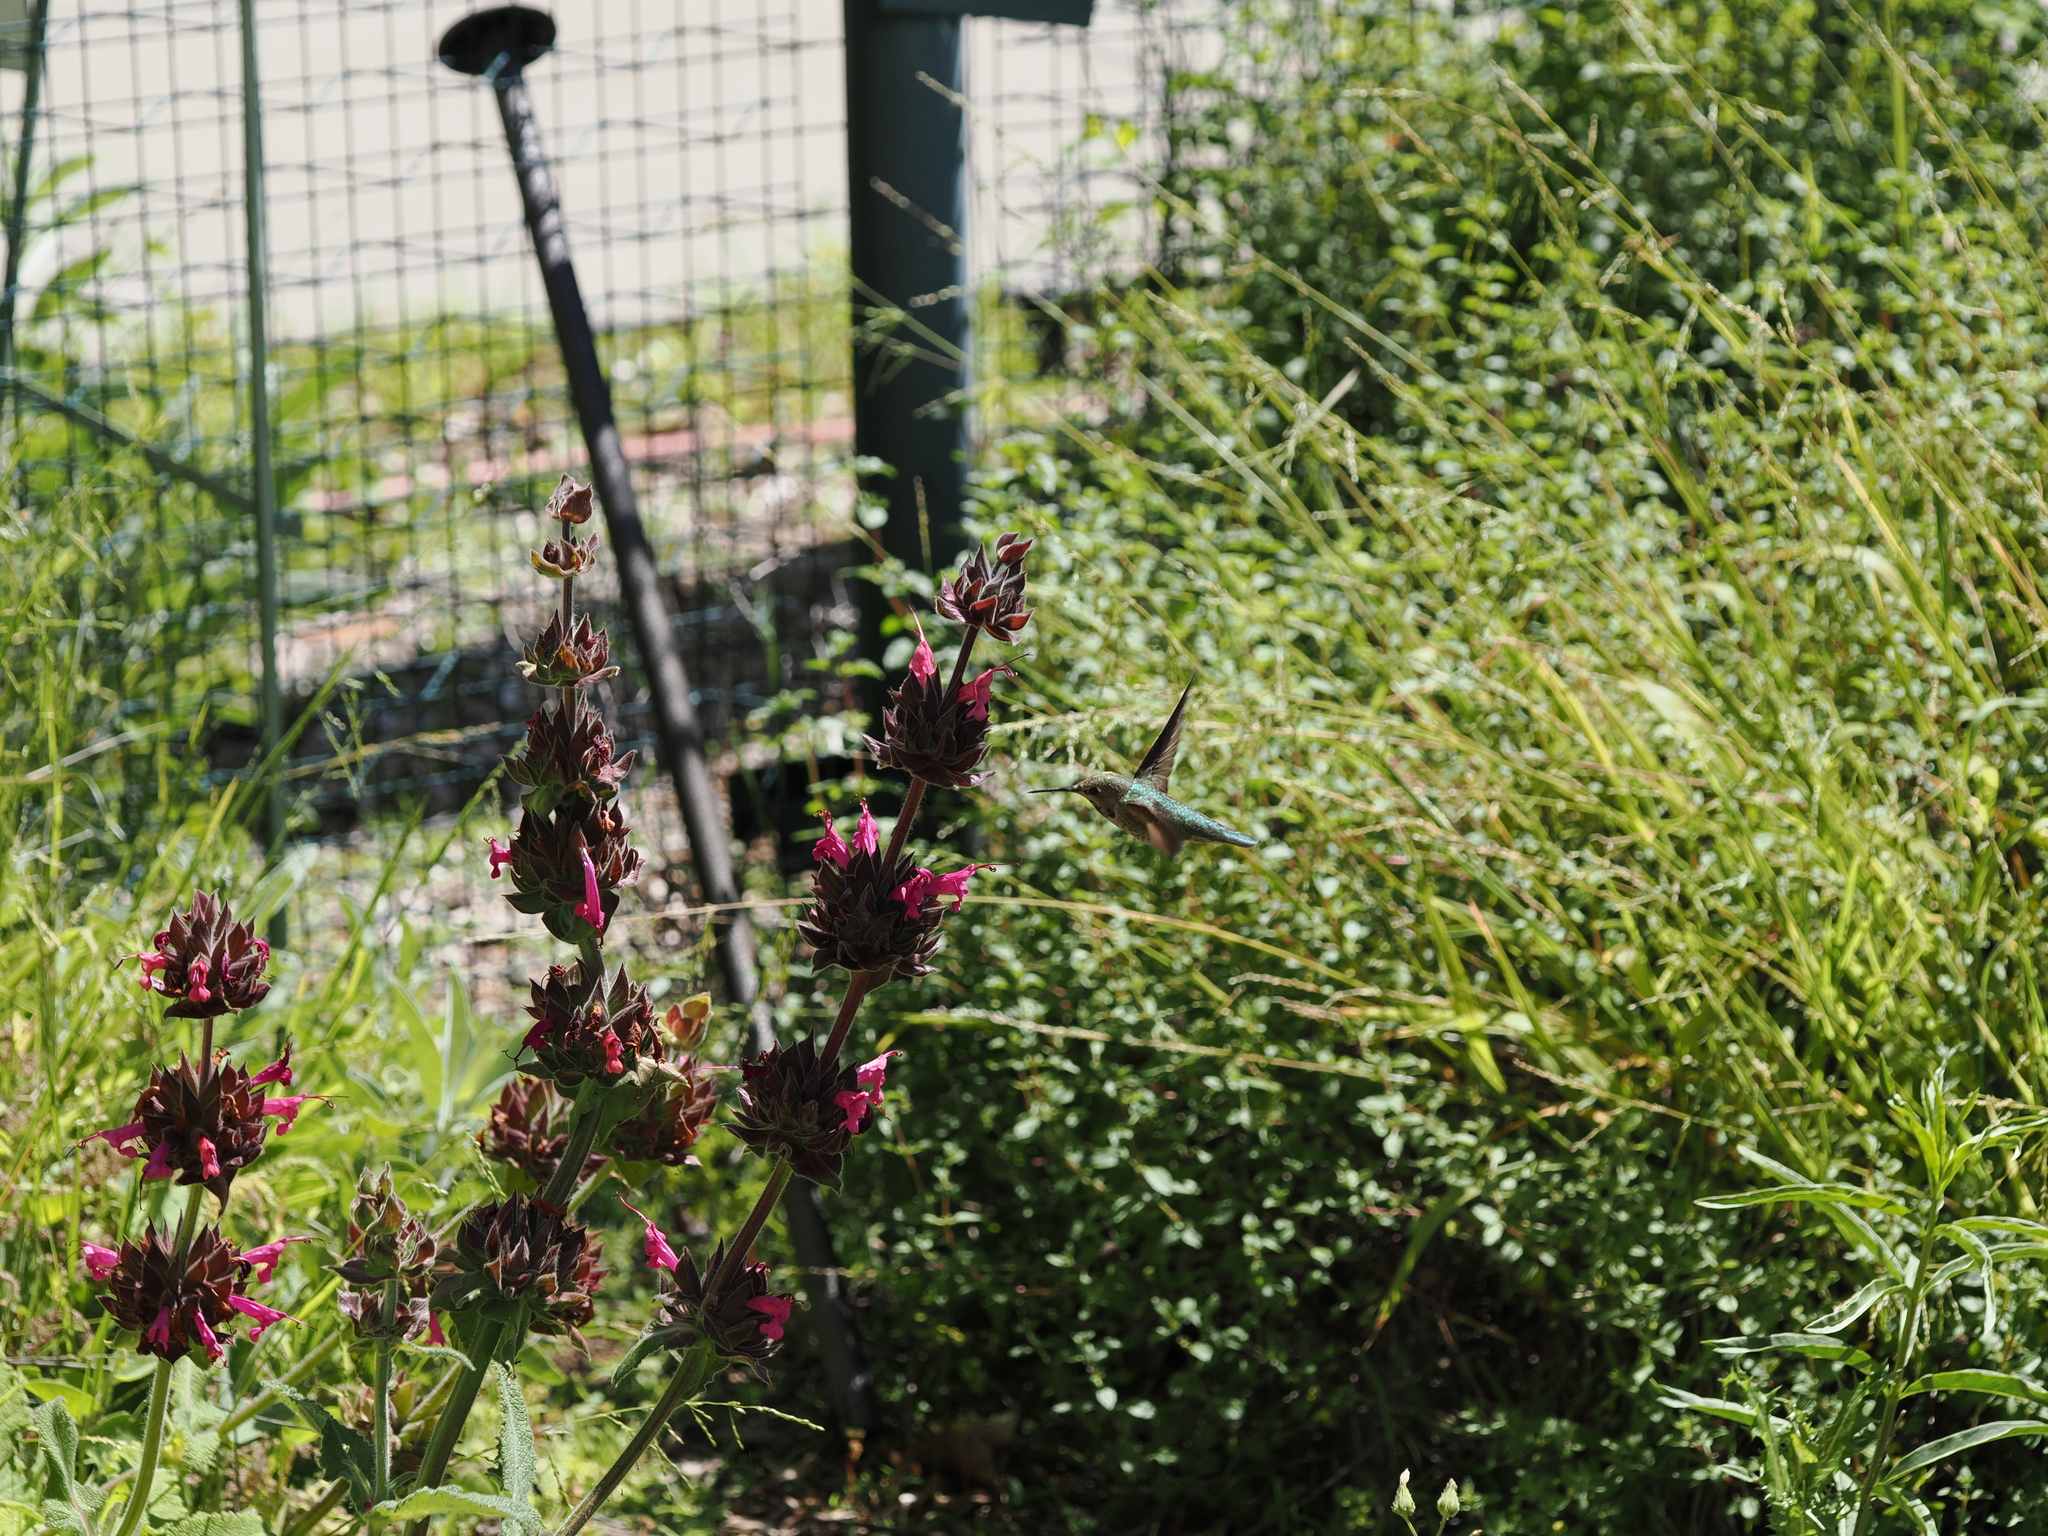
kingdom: Animalia
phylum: Chordata
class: Aves
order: Apodiformes
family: Trochilidae
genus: Calypte
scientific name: Calypte anna
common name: Anna's hummingbird
